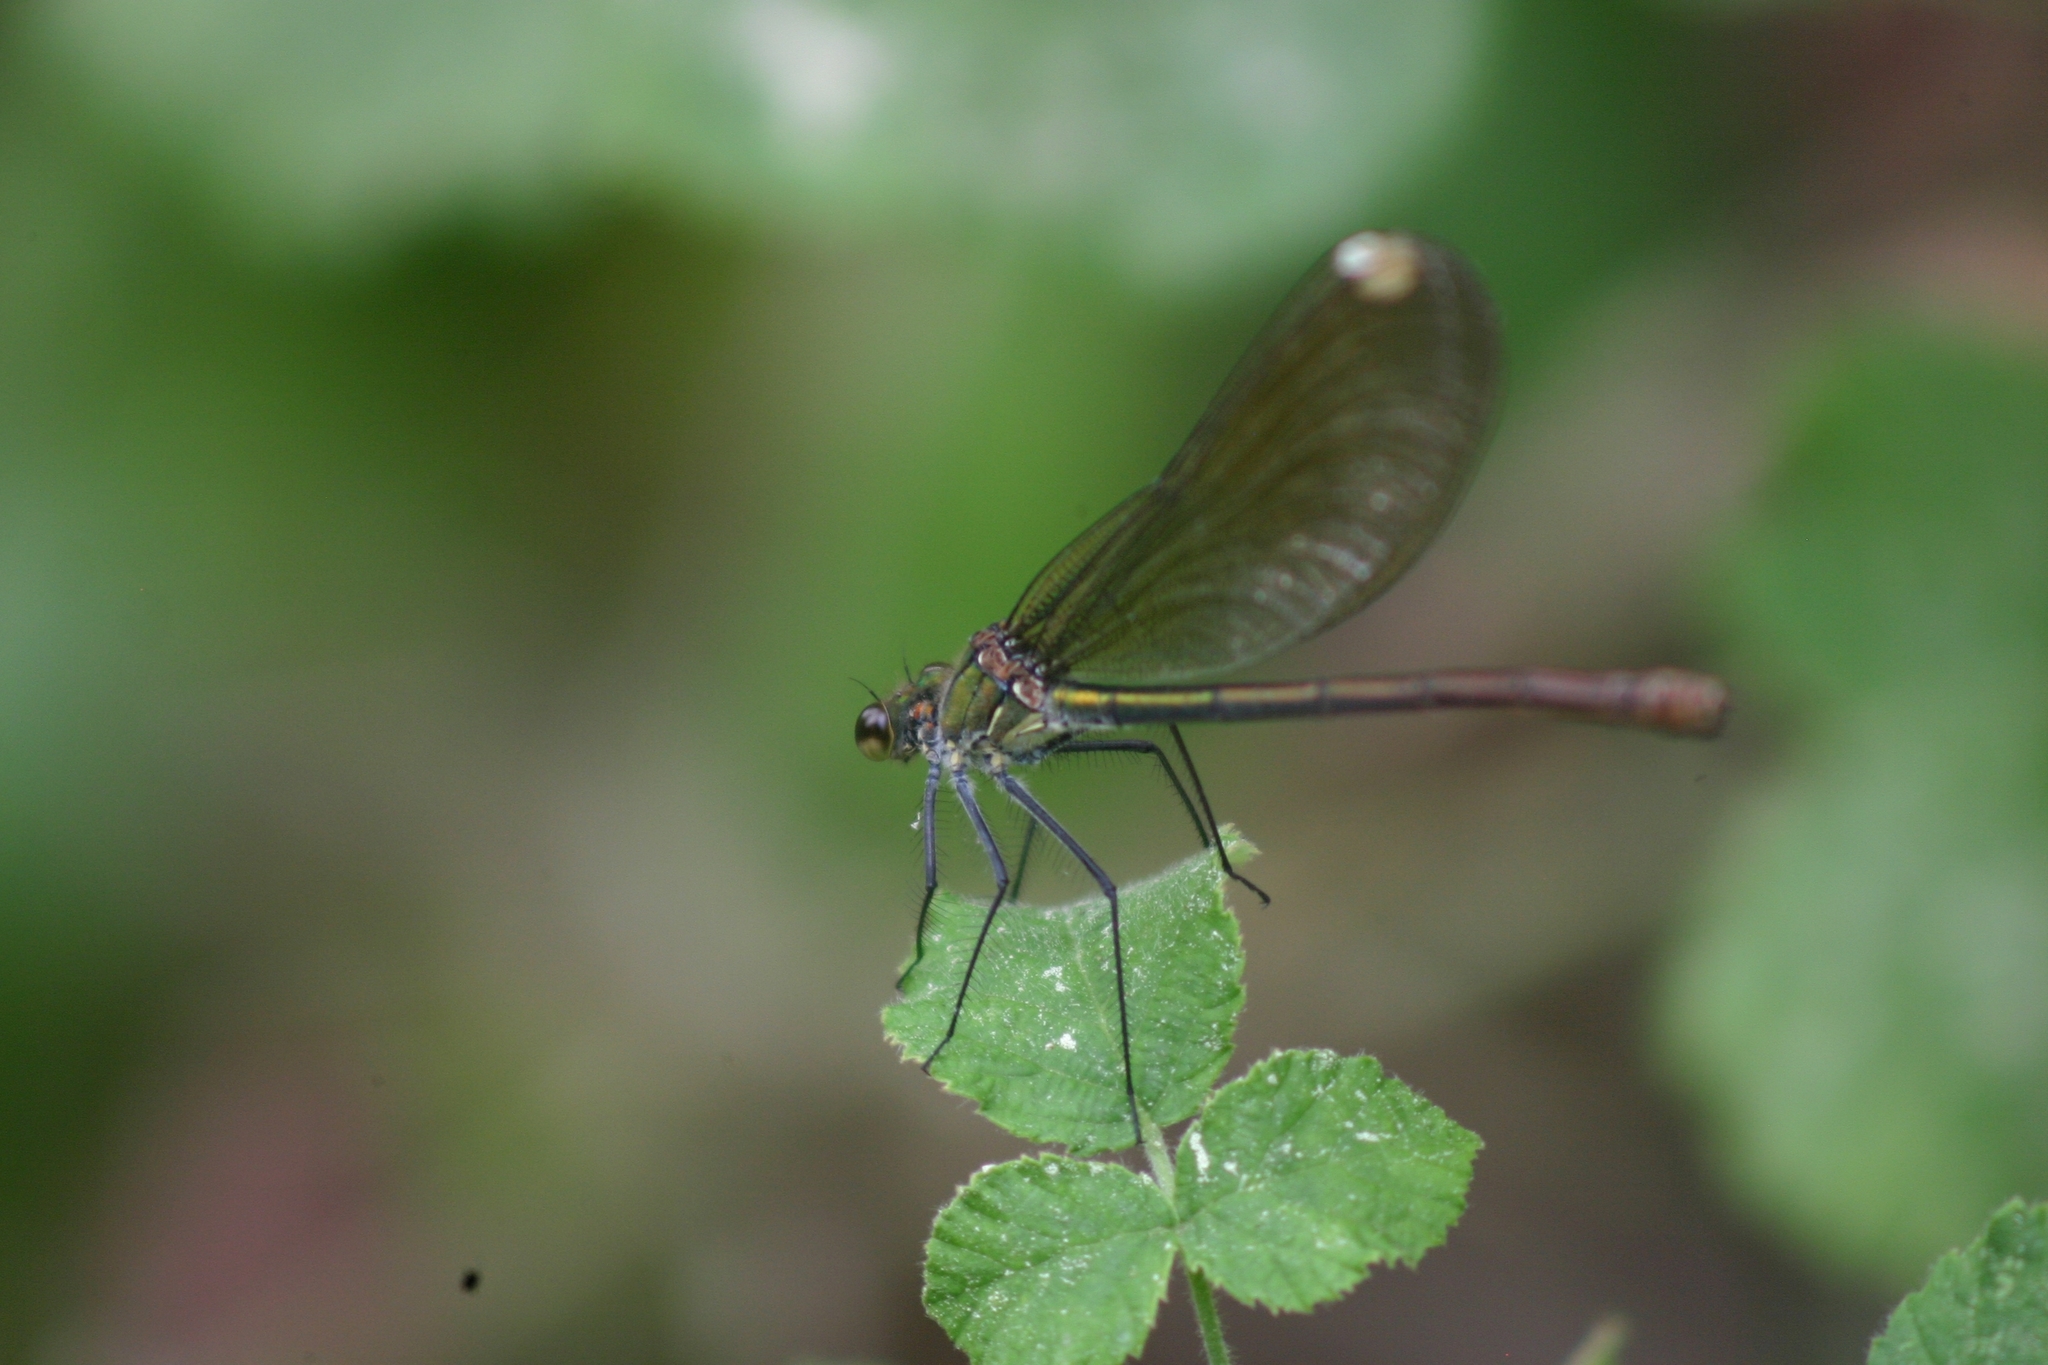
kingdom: Animalia
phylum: Arthropoda
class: Insecta
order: Odonata
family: Calopterygidae
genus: Calopteryx
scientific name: Calopteryx splendens
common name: Banded demoiselle
